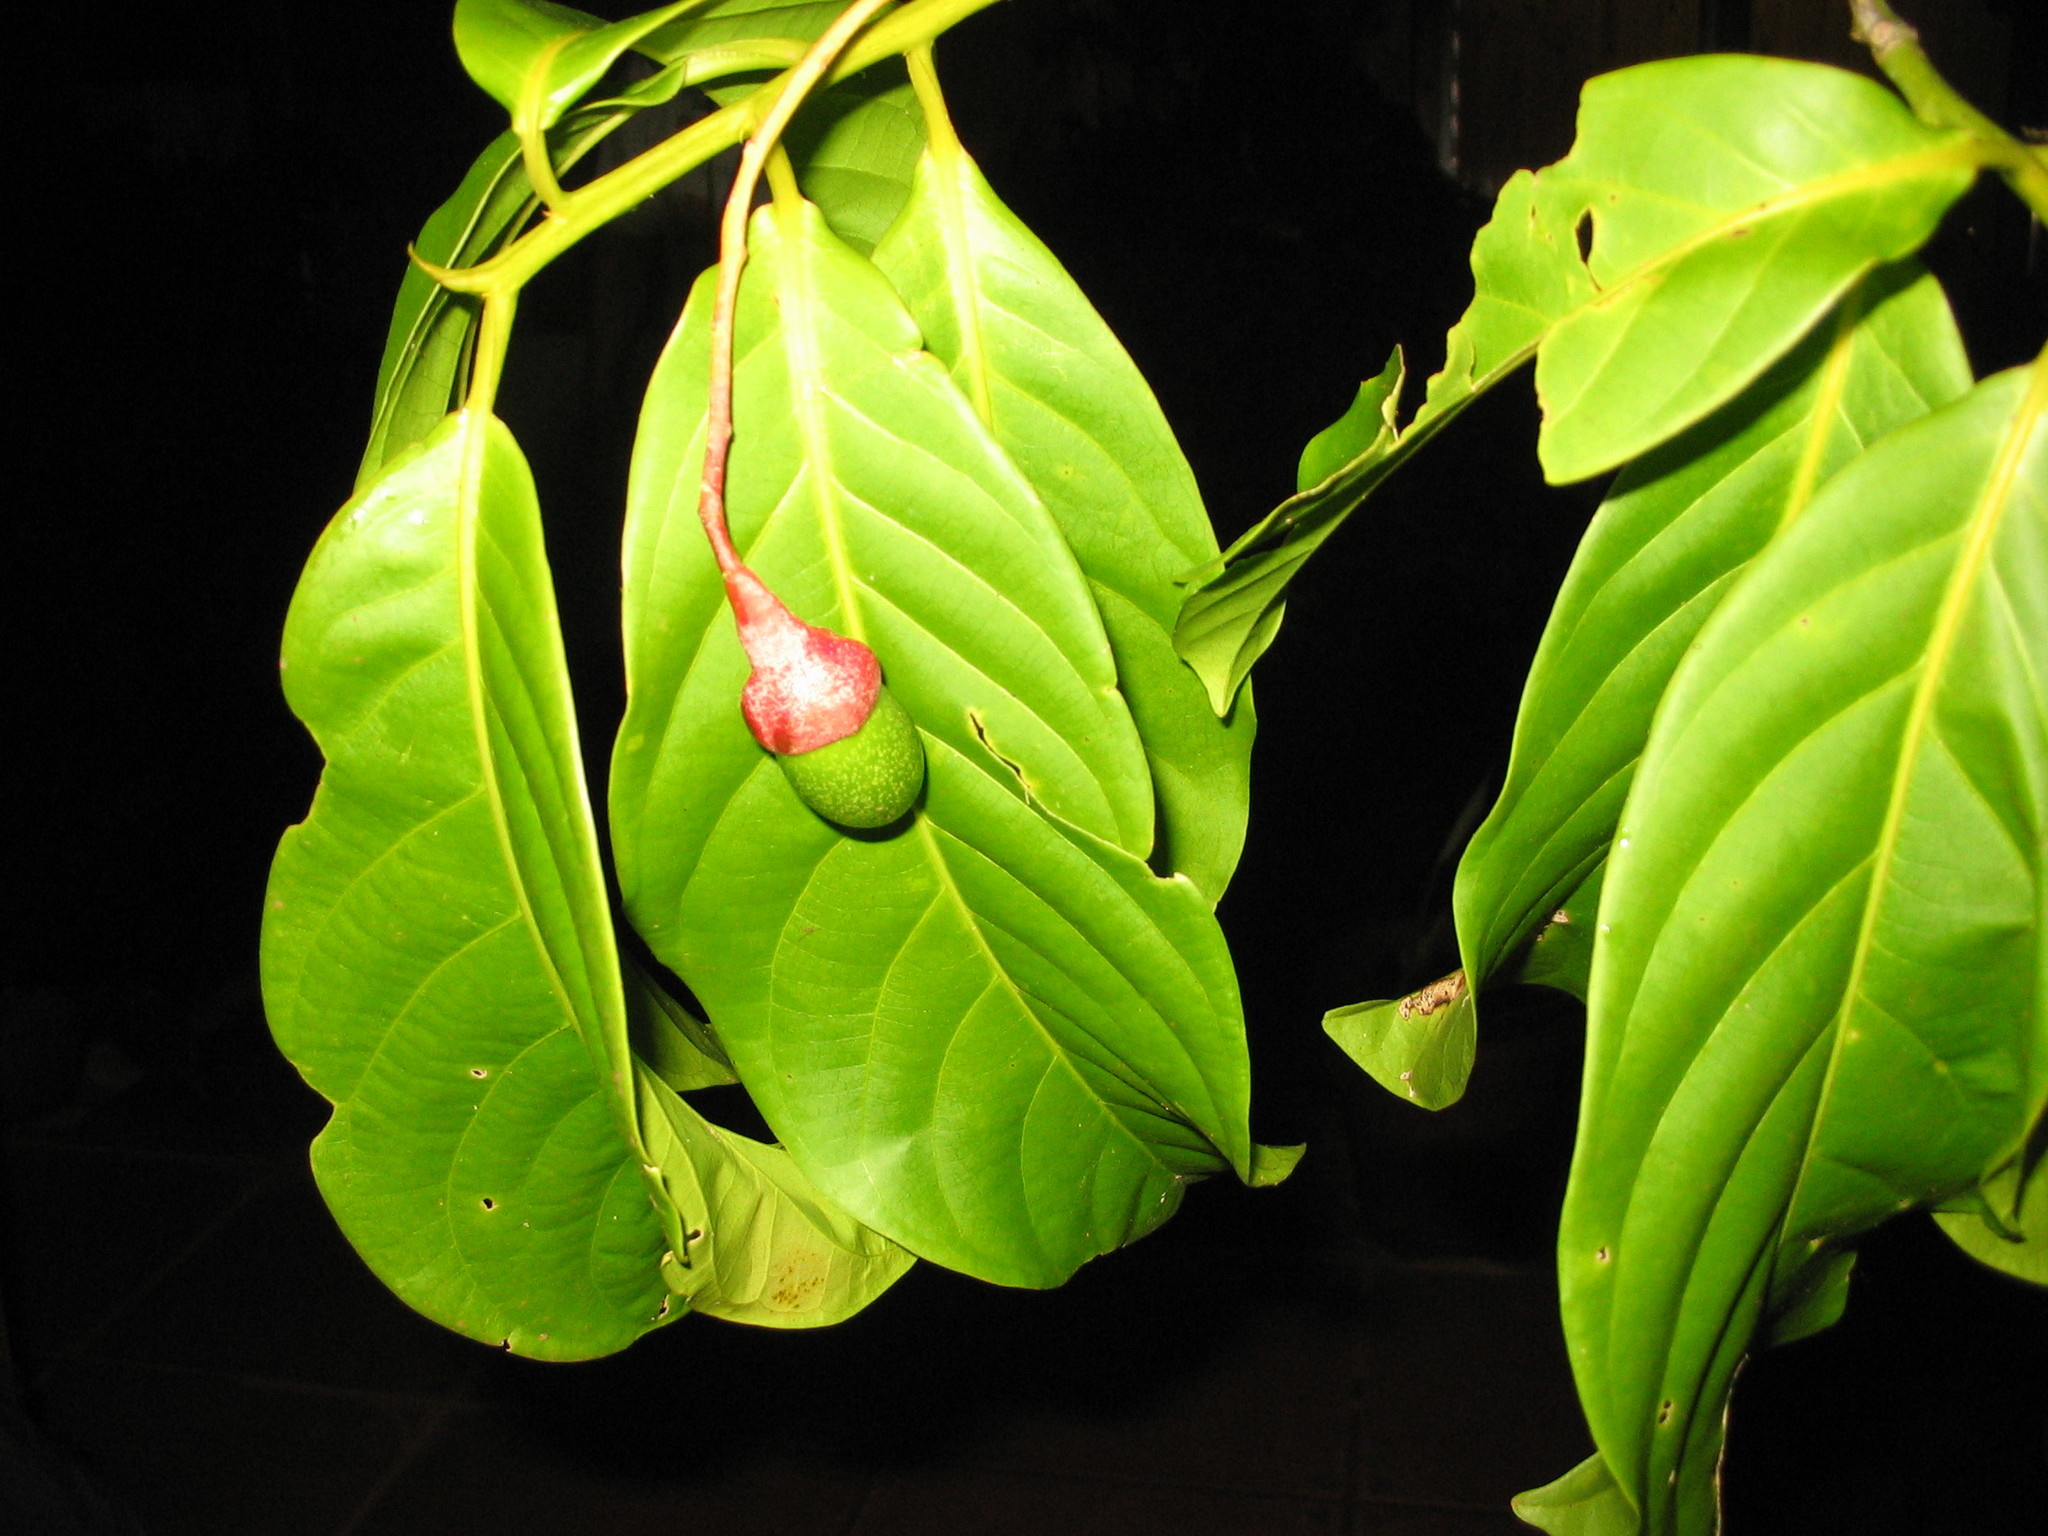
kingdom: Plantae
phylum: Tracheophyta
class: Magnoliopsida
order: Laurales
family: Lauraceae
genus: Ocotea
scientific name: Ocotea laetevirens
